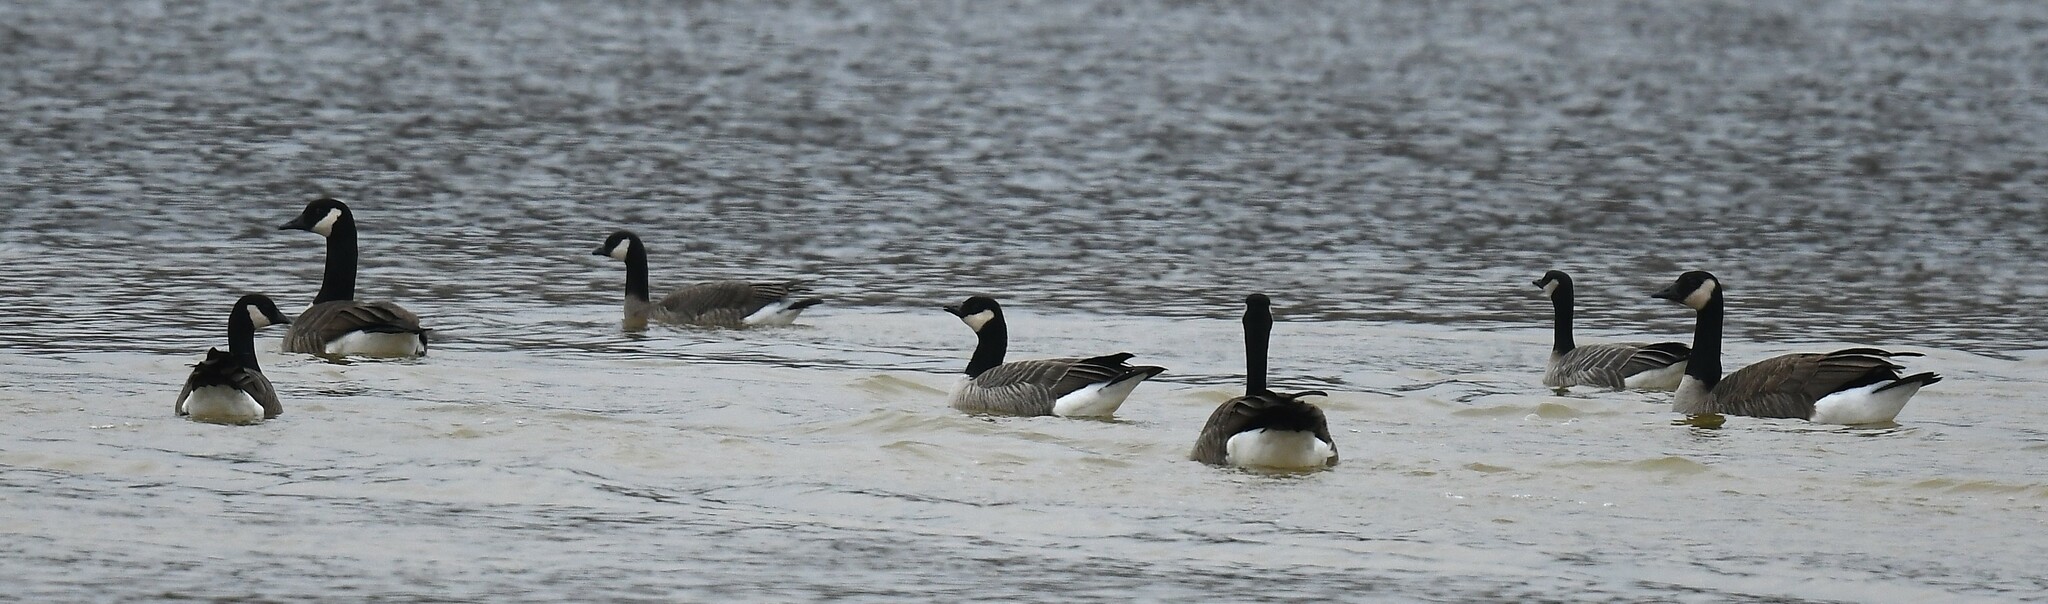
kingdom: Animalia
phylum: Chordata
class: Aves
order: Anseriformes
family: Anatidae
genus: Branta
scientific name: Branta hutchinsii
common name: Cackling goose
